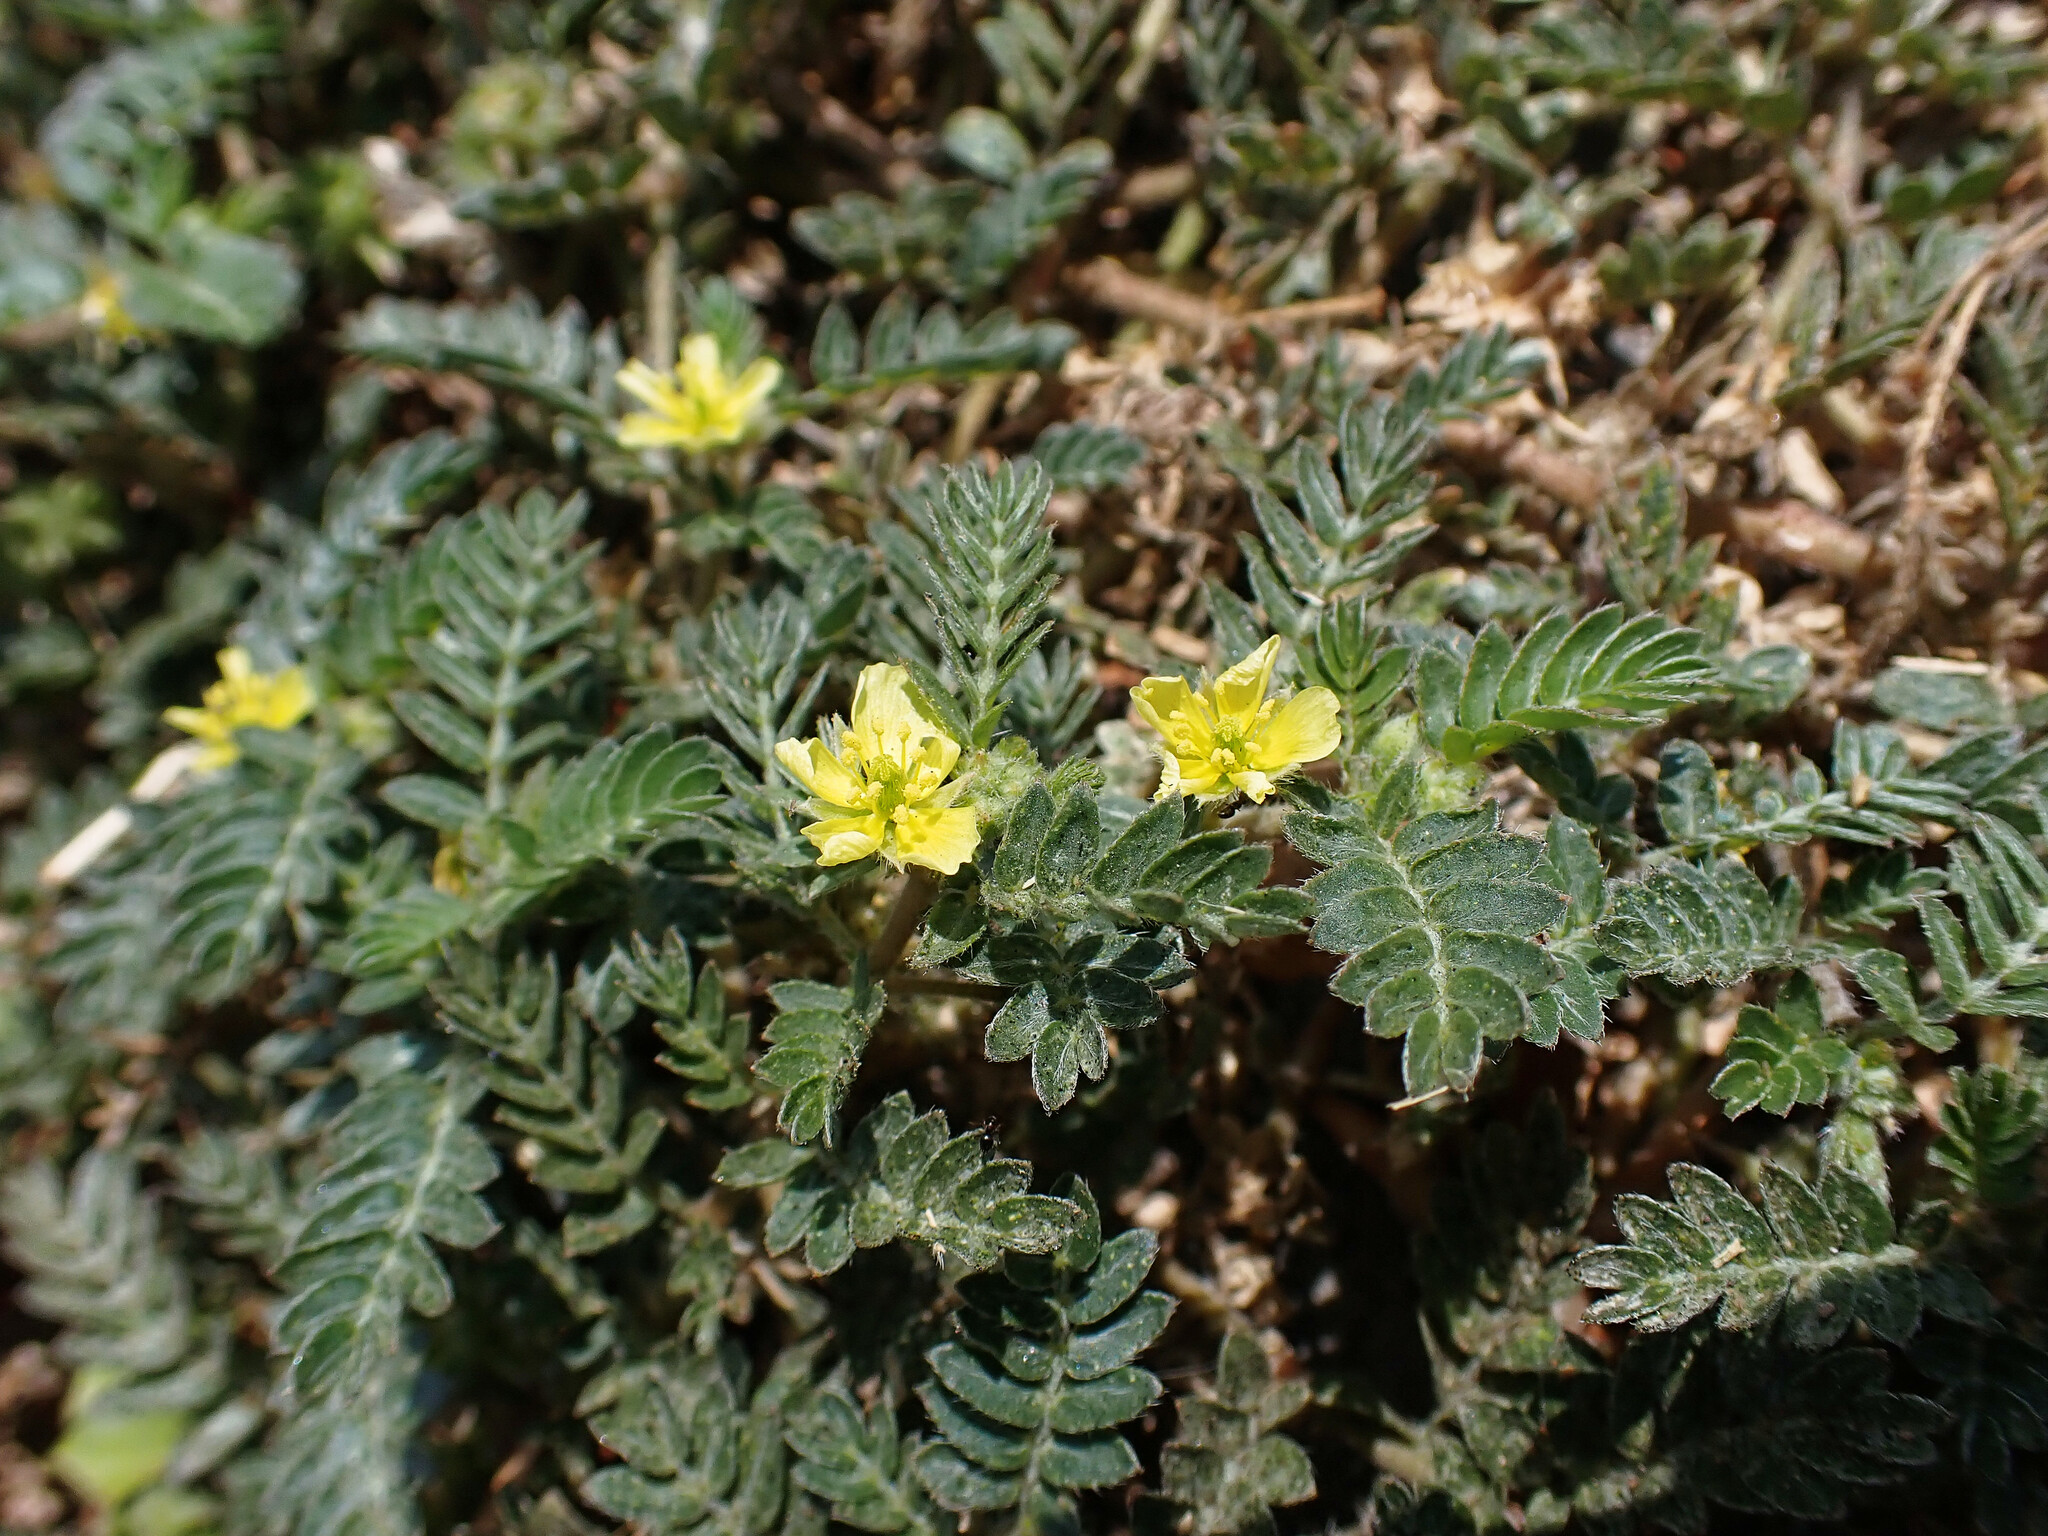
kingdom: Plantae
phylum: Tracheophyta
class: Magnoliopsida
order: Zygophyllales
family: Zygophyllaceae
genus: Tribulus
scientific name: Tribulus terrestris
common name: Puncturevine
